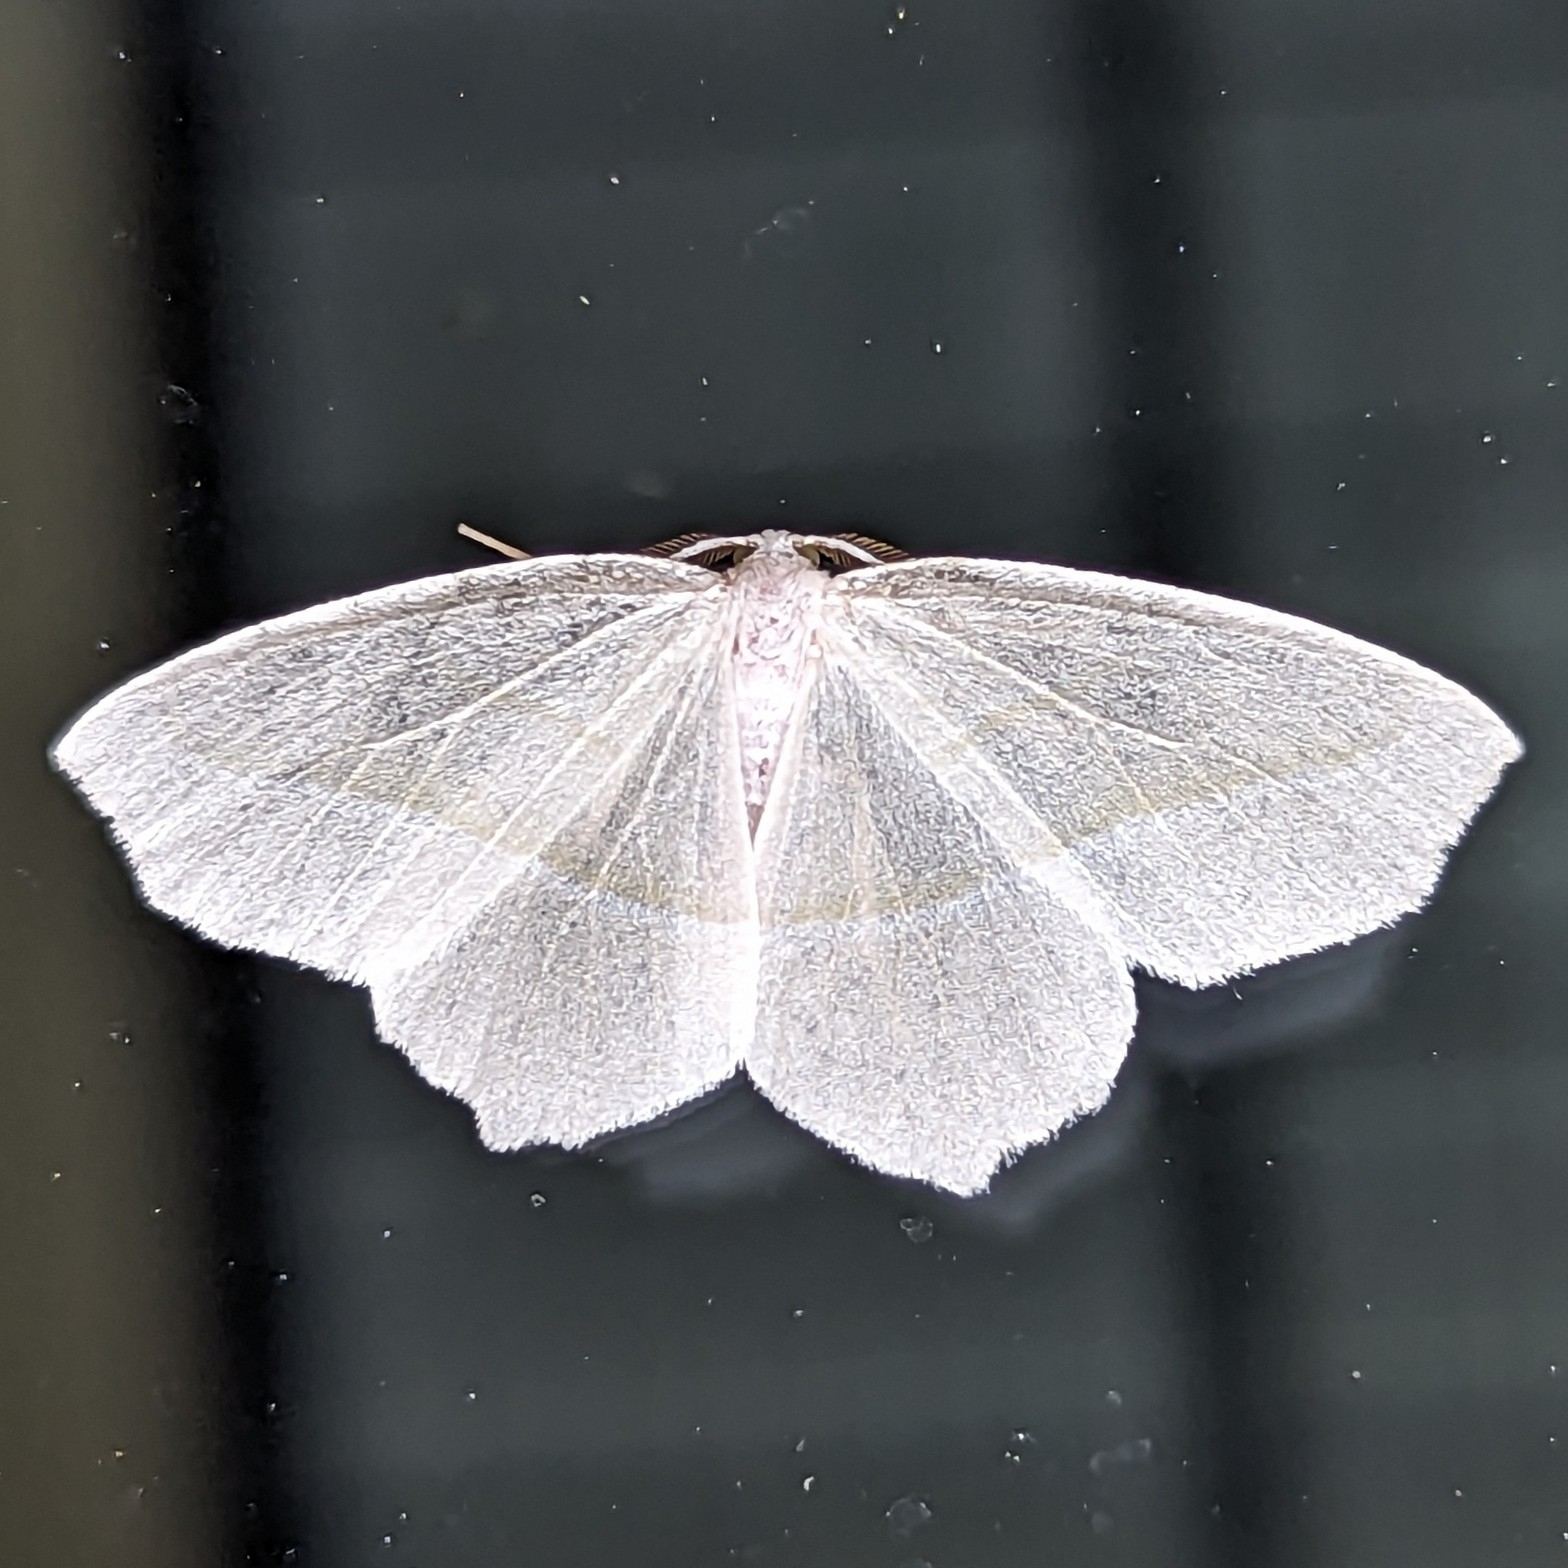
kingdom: Animalia
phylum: Arthropoda
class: Insecta
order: Lepidoptera
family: Geometridae
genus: Campaea
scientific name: Campaea perlata
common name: Fringed looper
